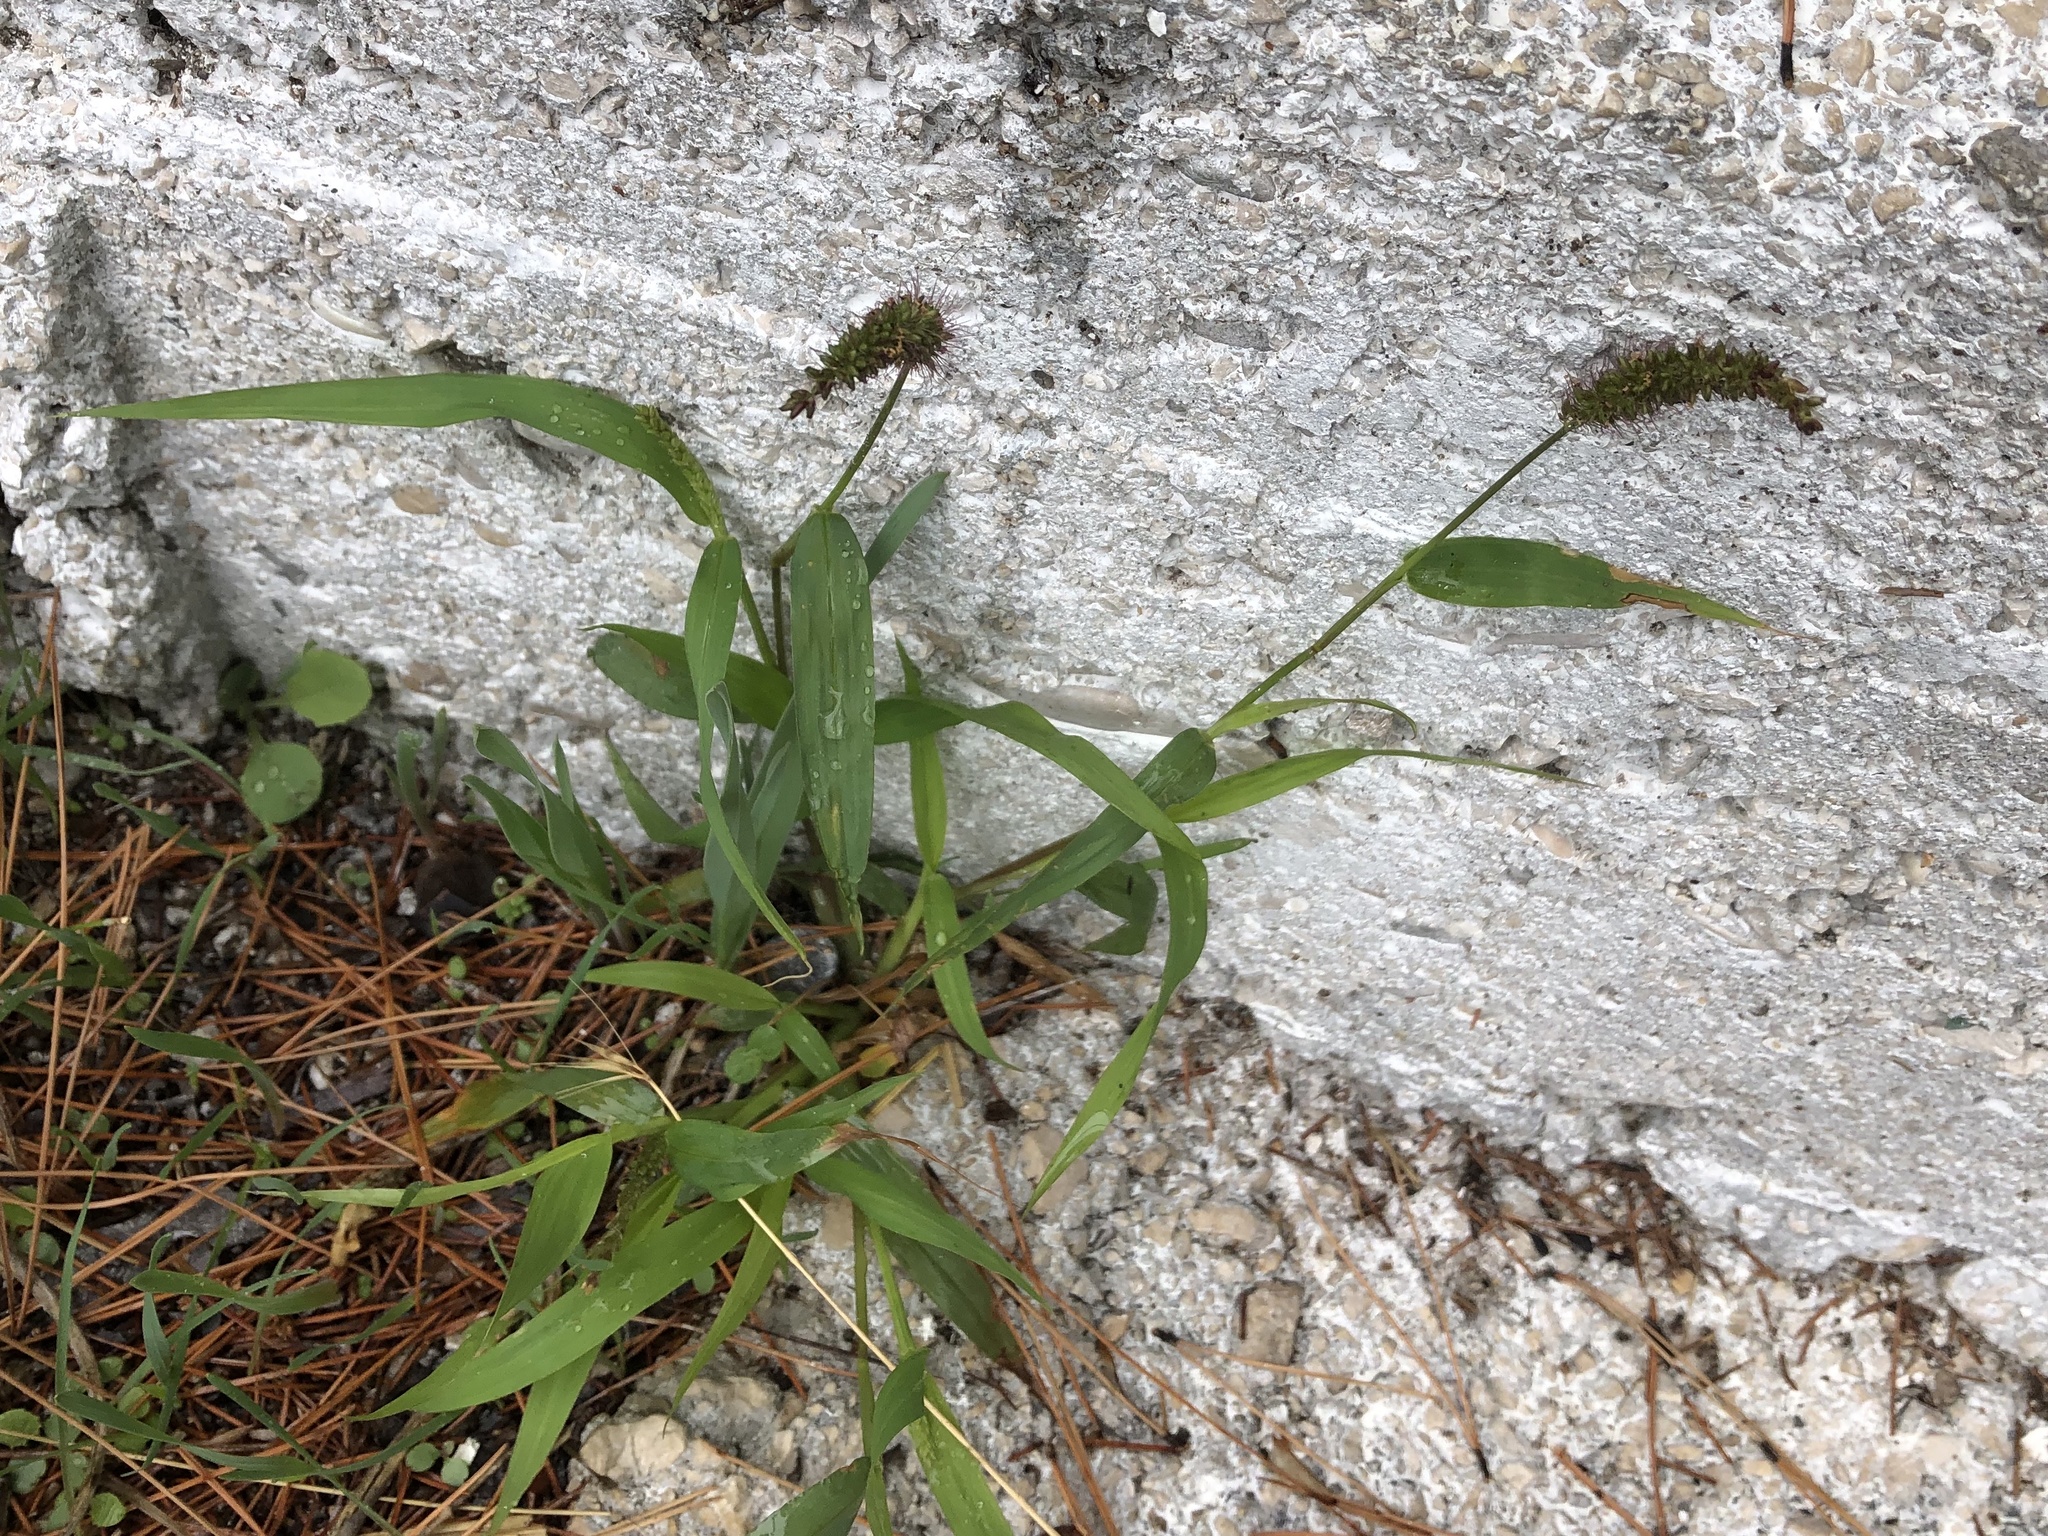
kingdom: Plantae
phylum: Tracheophyta
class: Liliopsida
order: Poales
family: Poaceae
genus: Setaria
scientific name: Setaria adhaerens
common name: Adherent bristle-grass
